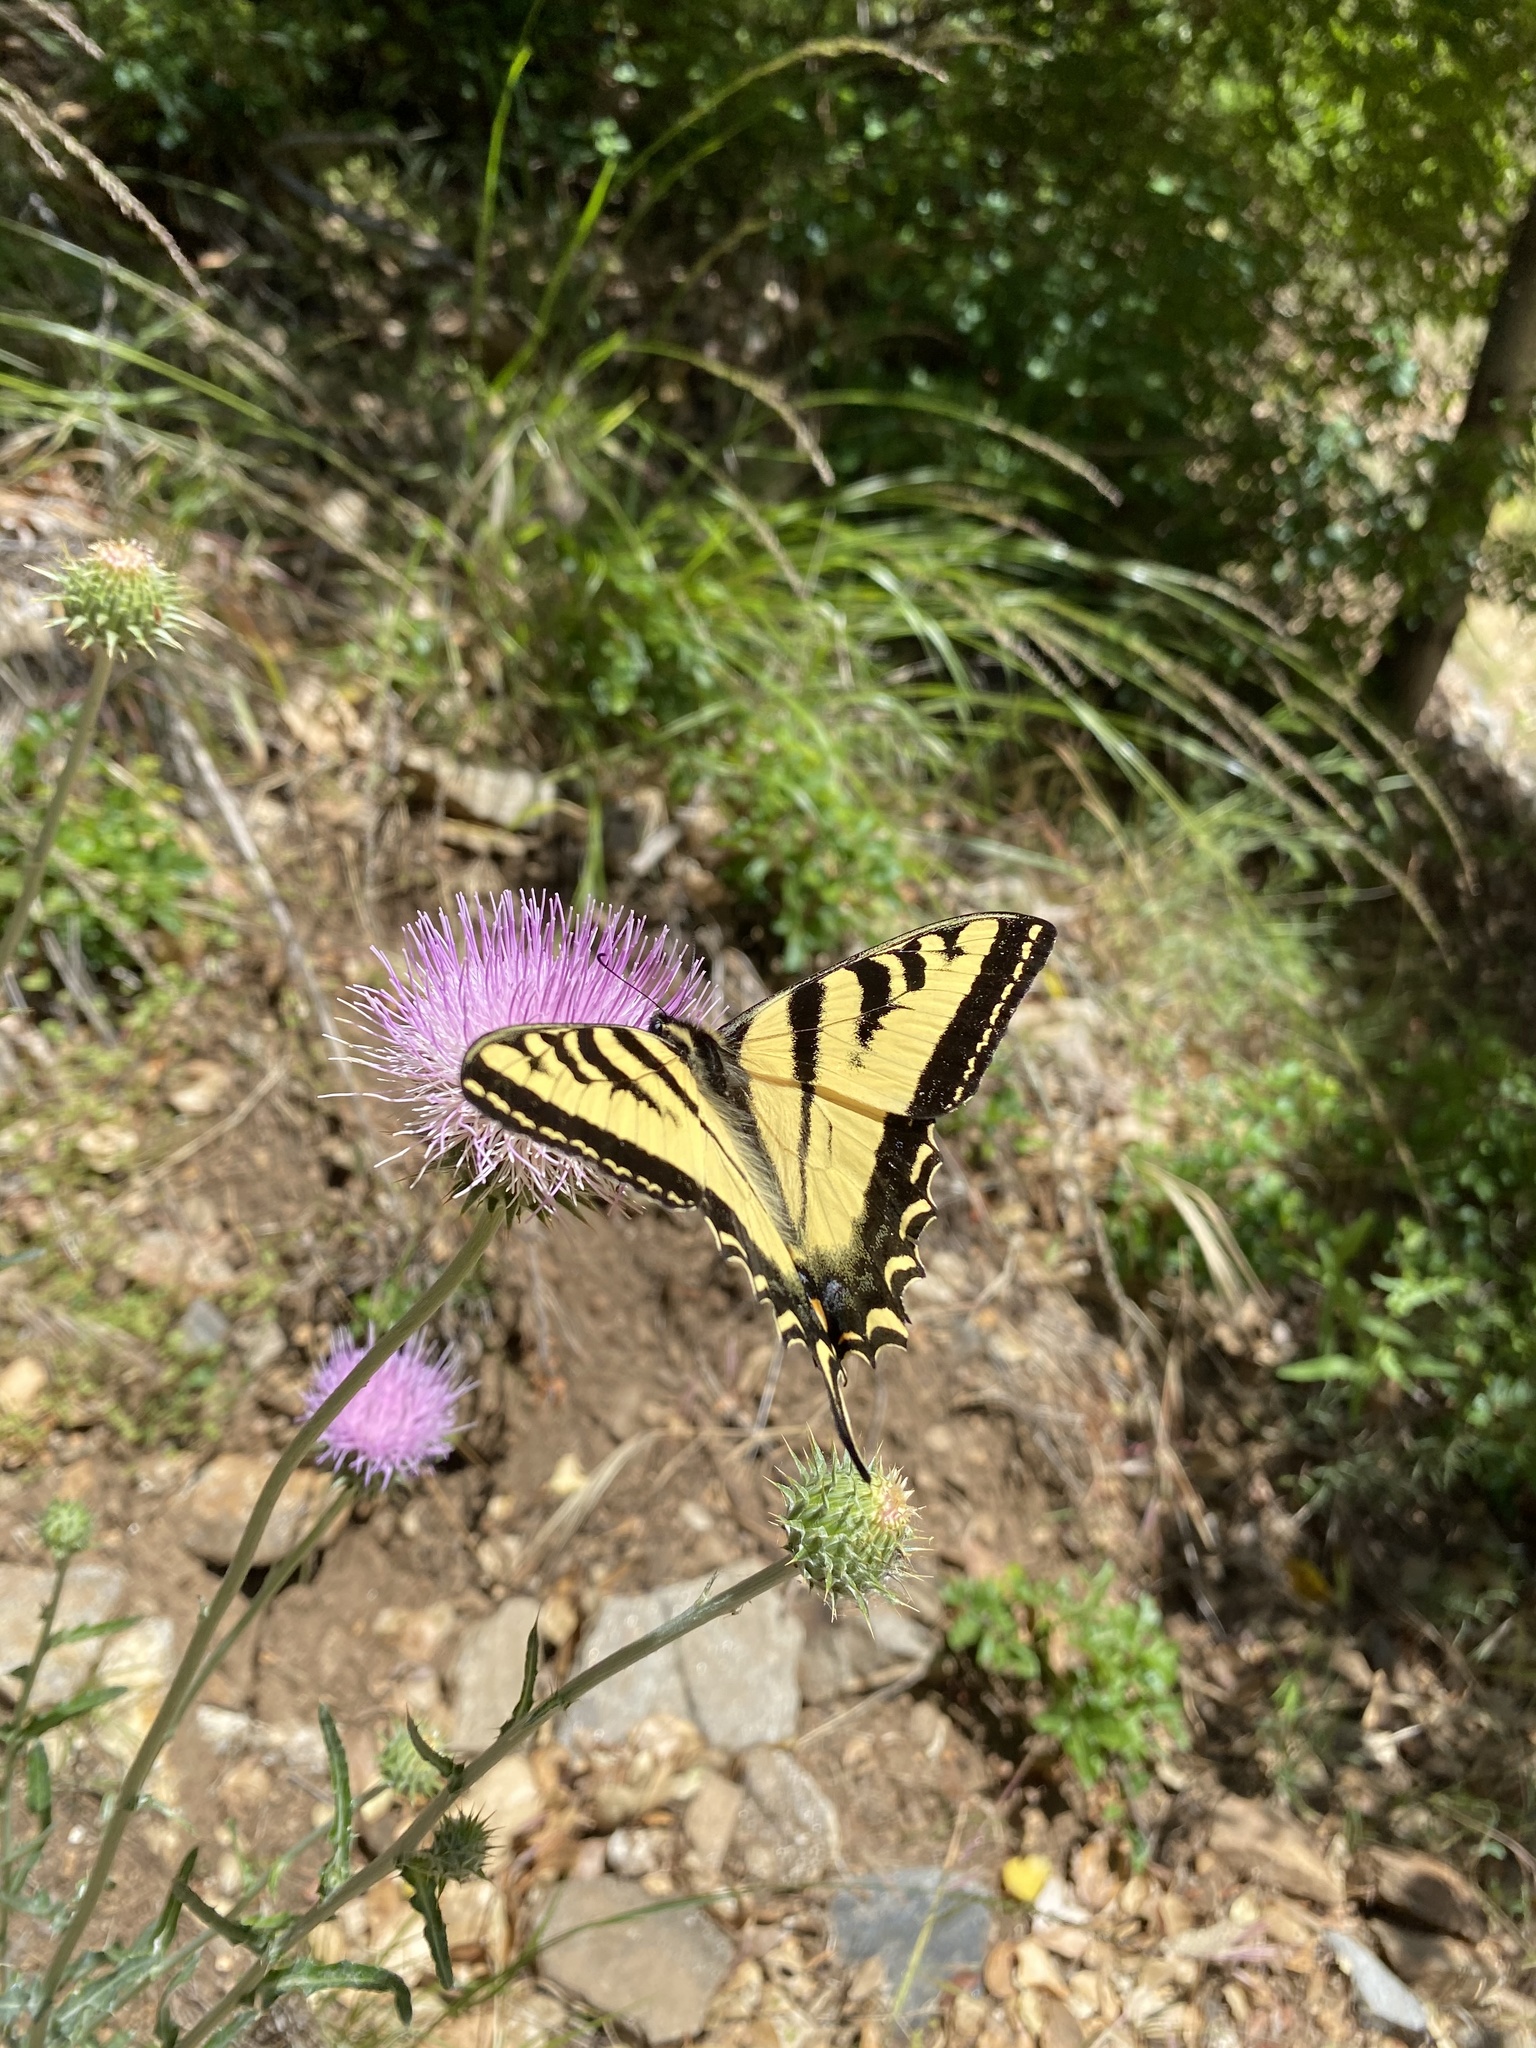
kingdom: Animalia
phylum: Arthropoda
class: Insecta
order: Lepidoptera
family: Papilionidae
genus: Papilio
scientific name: Papilio rutulus
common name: Western tiger swallowtail
